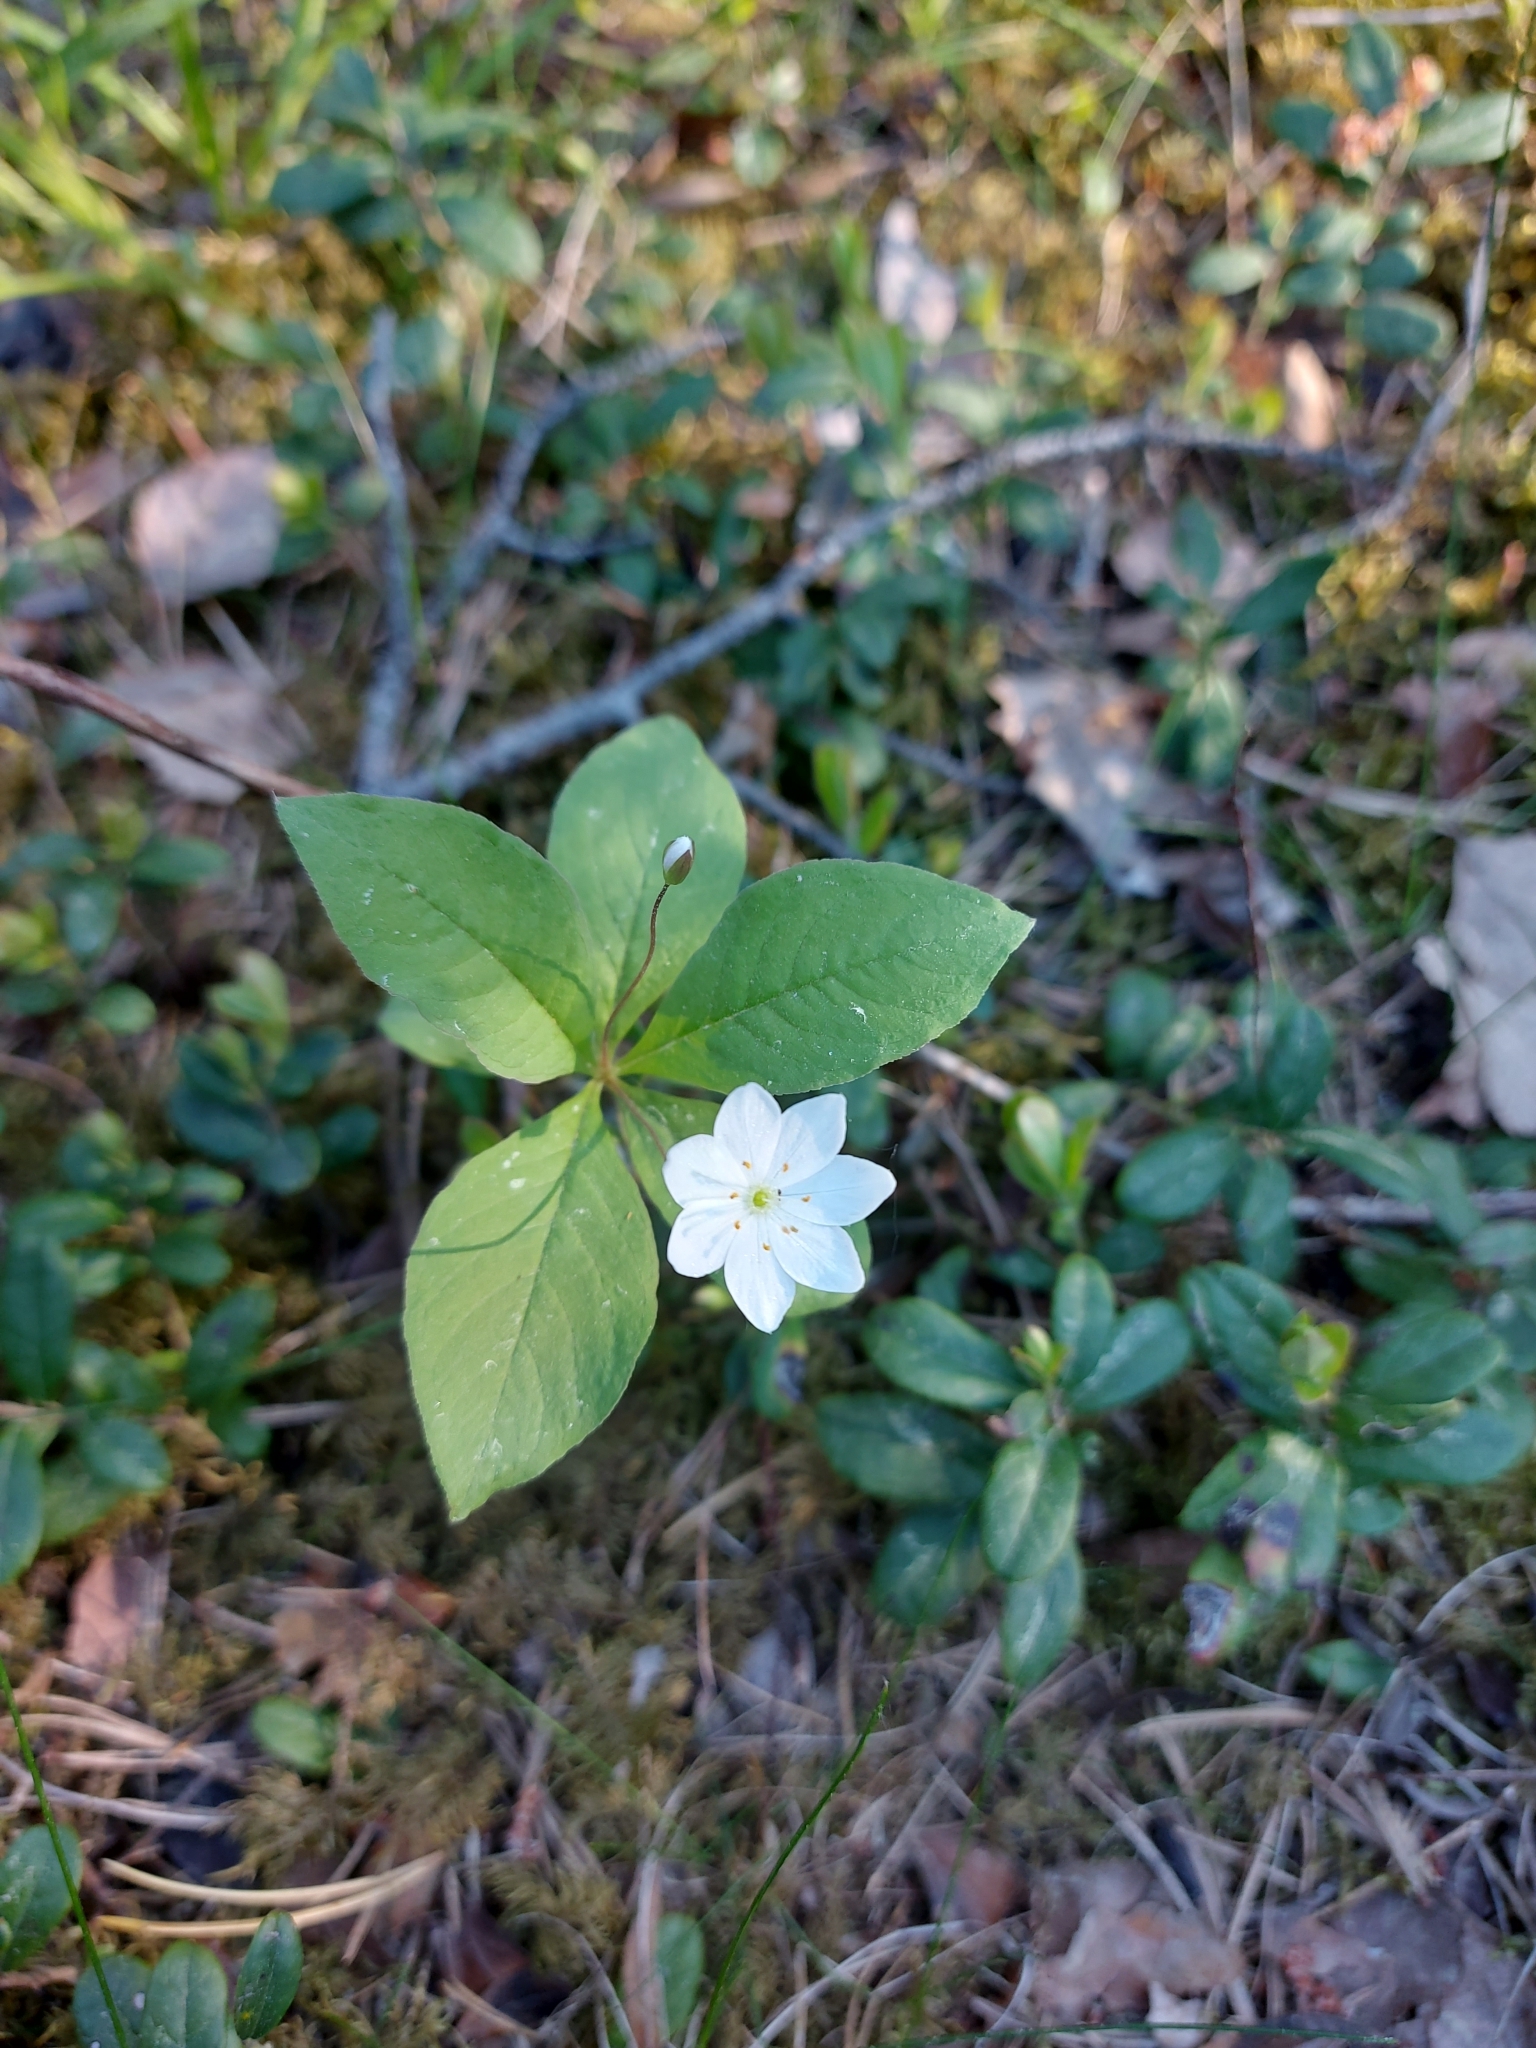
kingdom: Plantae
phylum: Tracheophyta
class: Magnoliopsida
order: Ericales
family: Primulaceae
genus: Lysimachia
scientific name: Lysimachia europaea
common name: Arctic starflower
